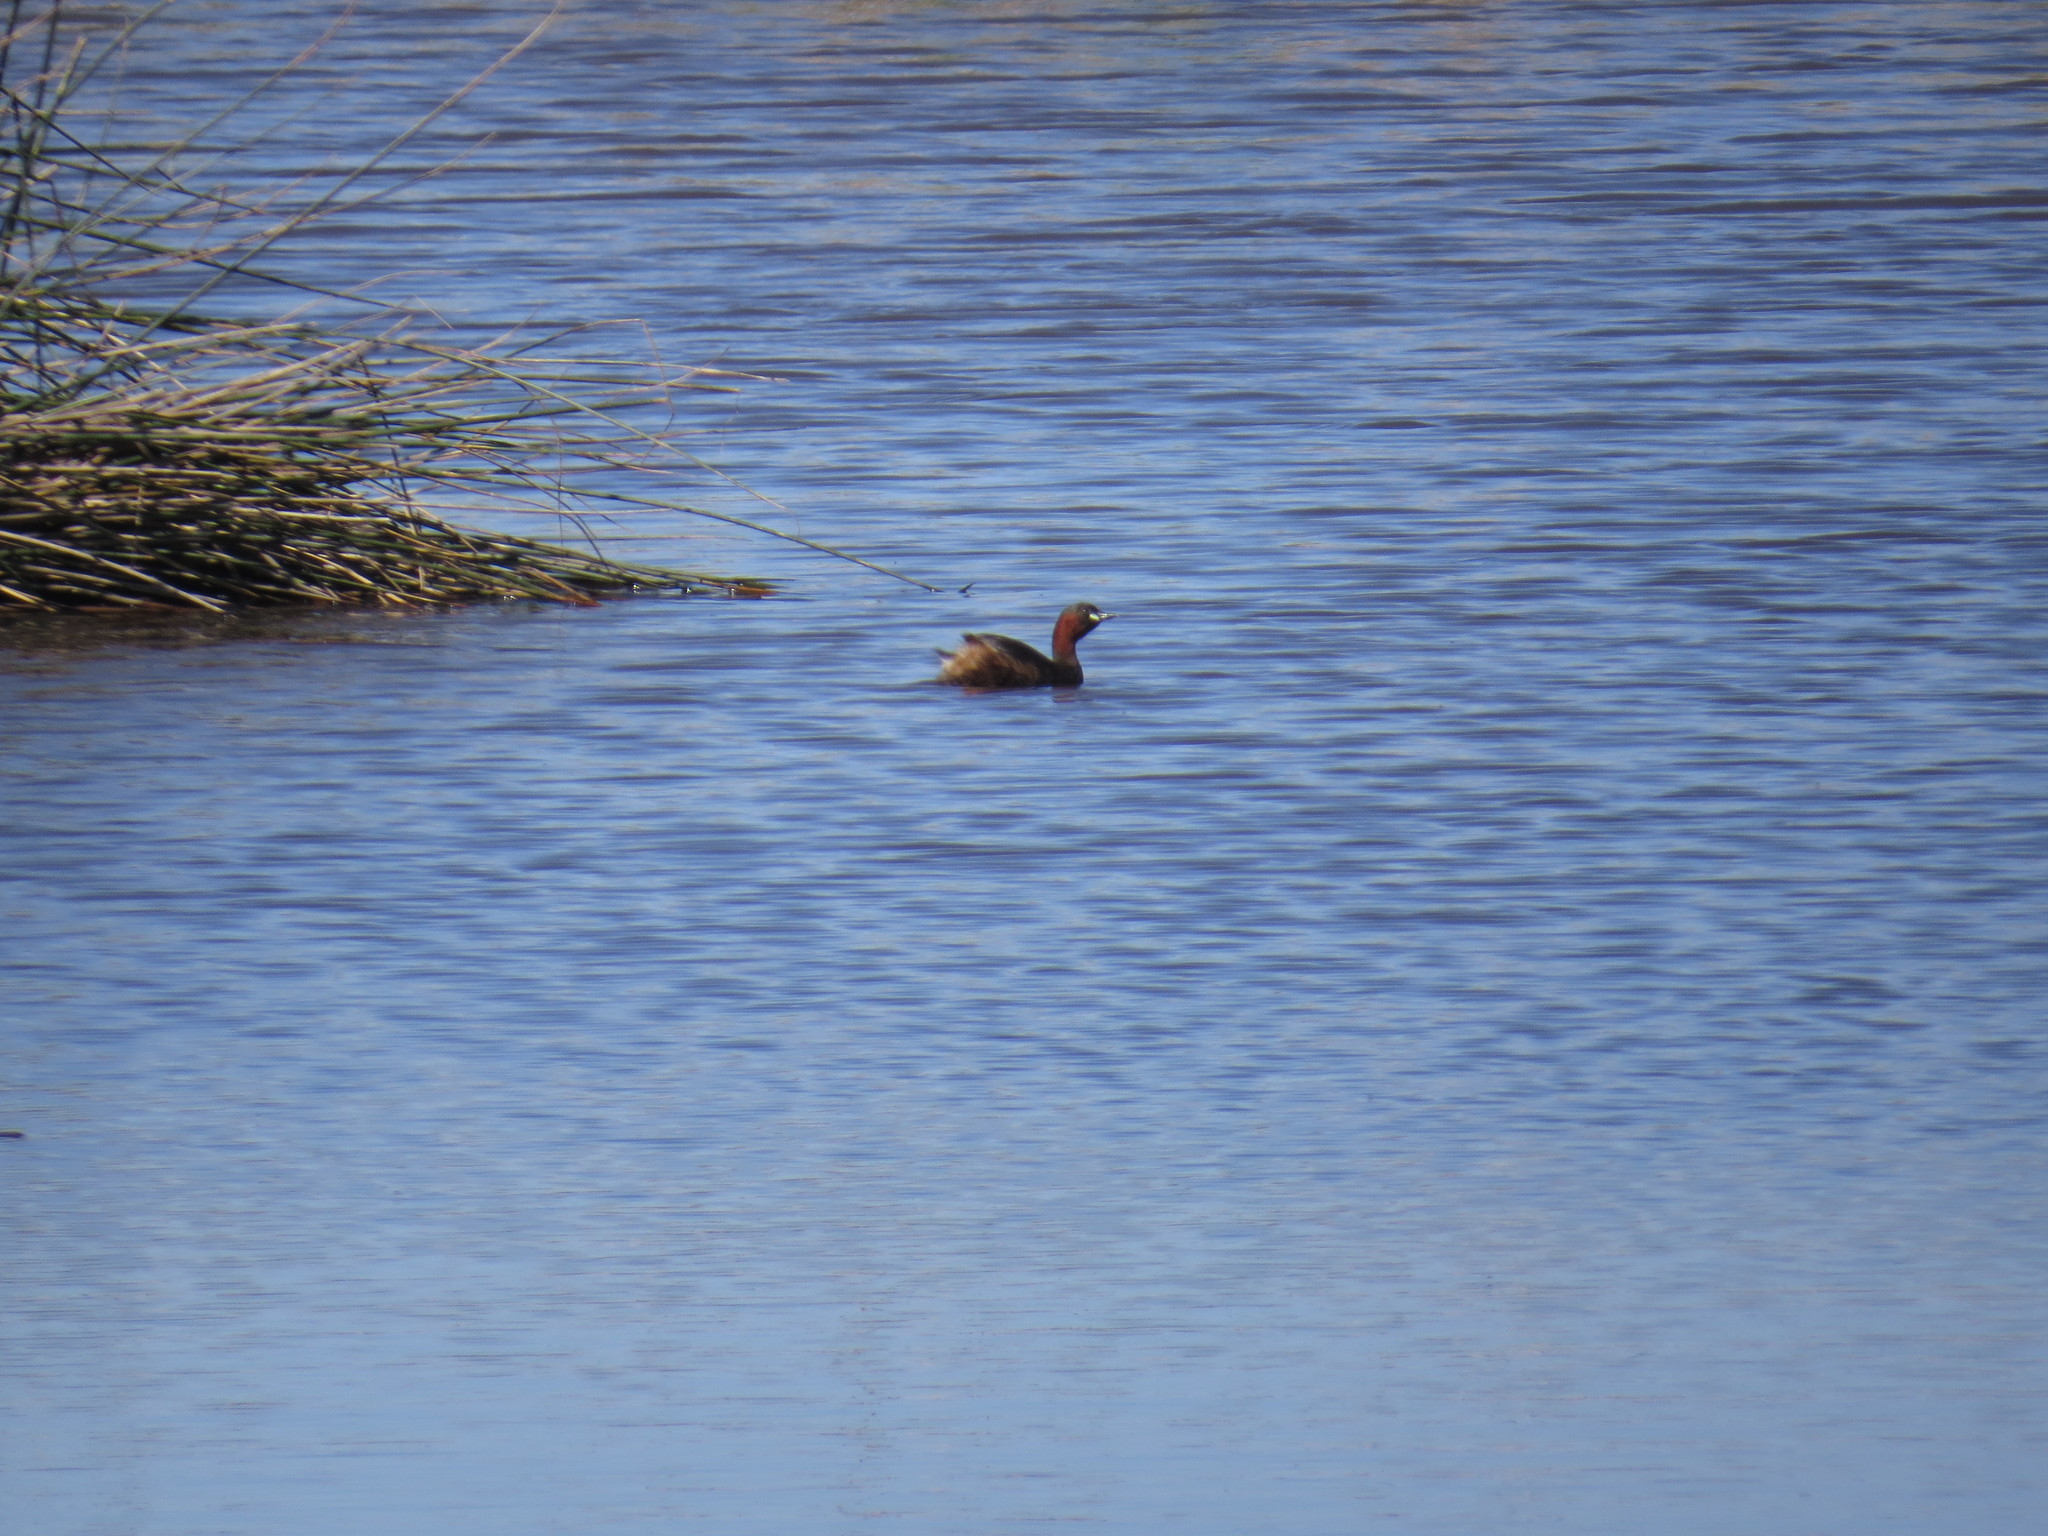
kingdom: Animalia
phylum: Chordata
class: Aves
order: Podicipediformes
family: Podicipedidae
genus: Tachybaptus
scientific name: Tachybaptus ruficollis
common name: Little grebe
